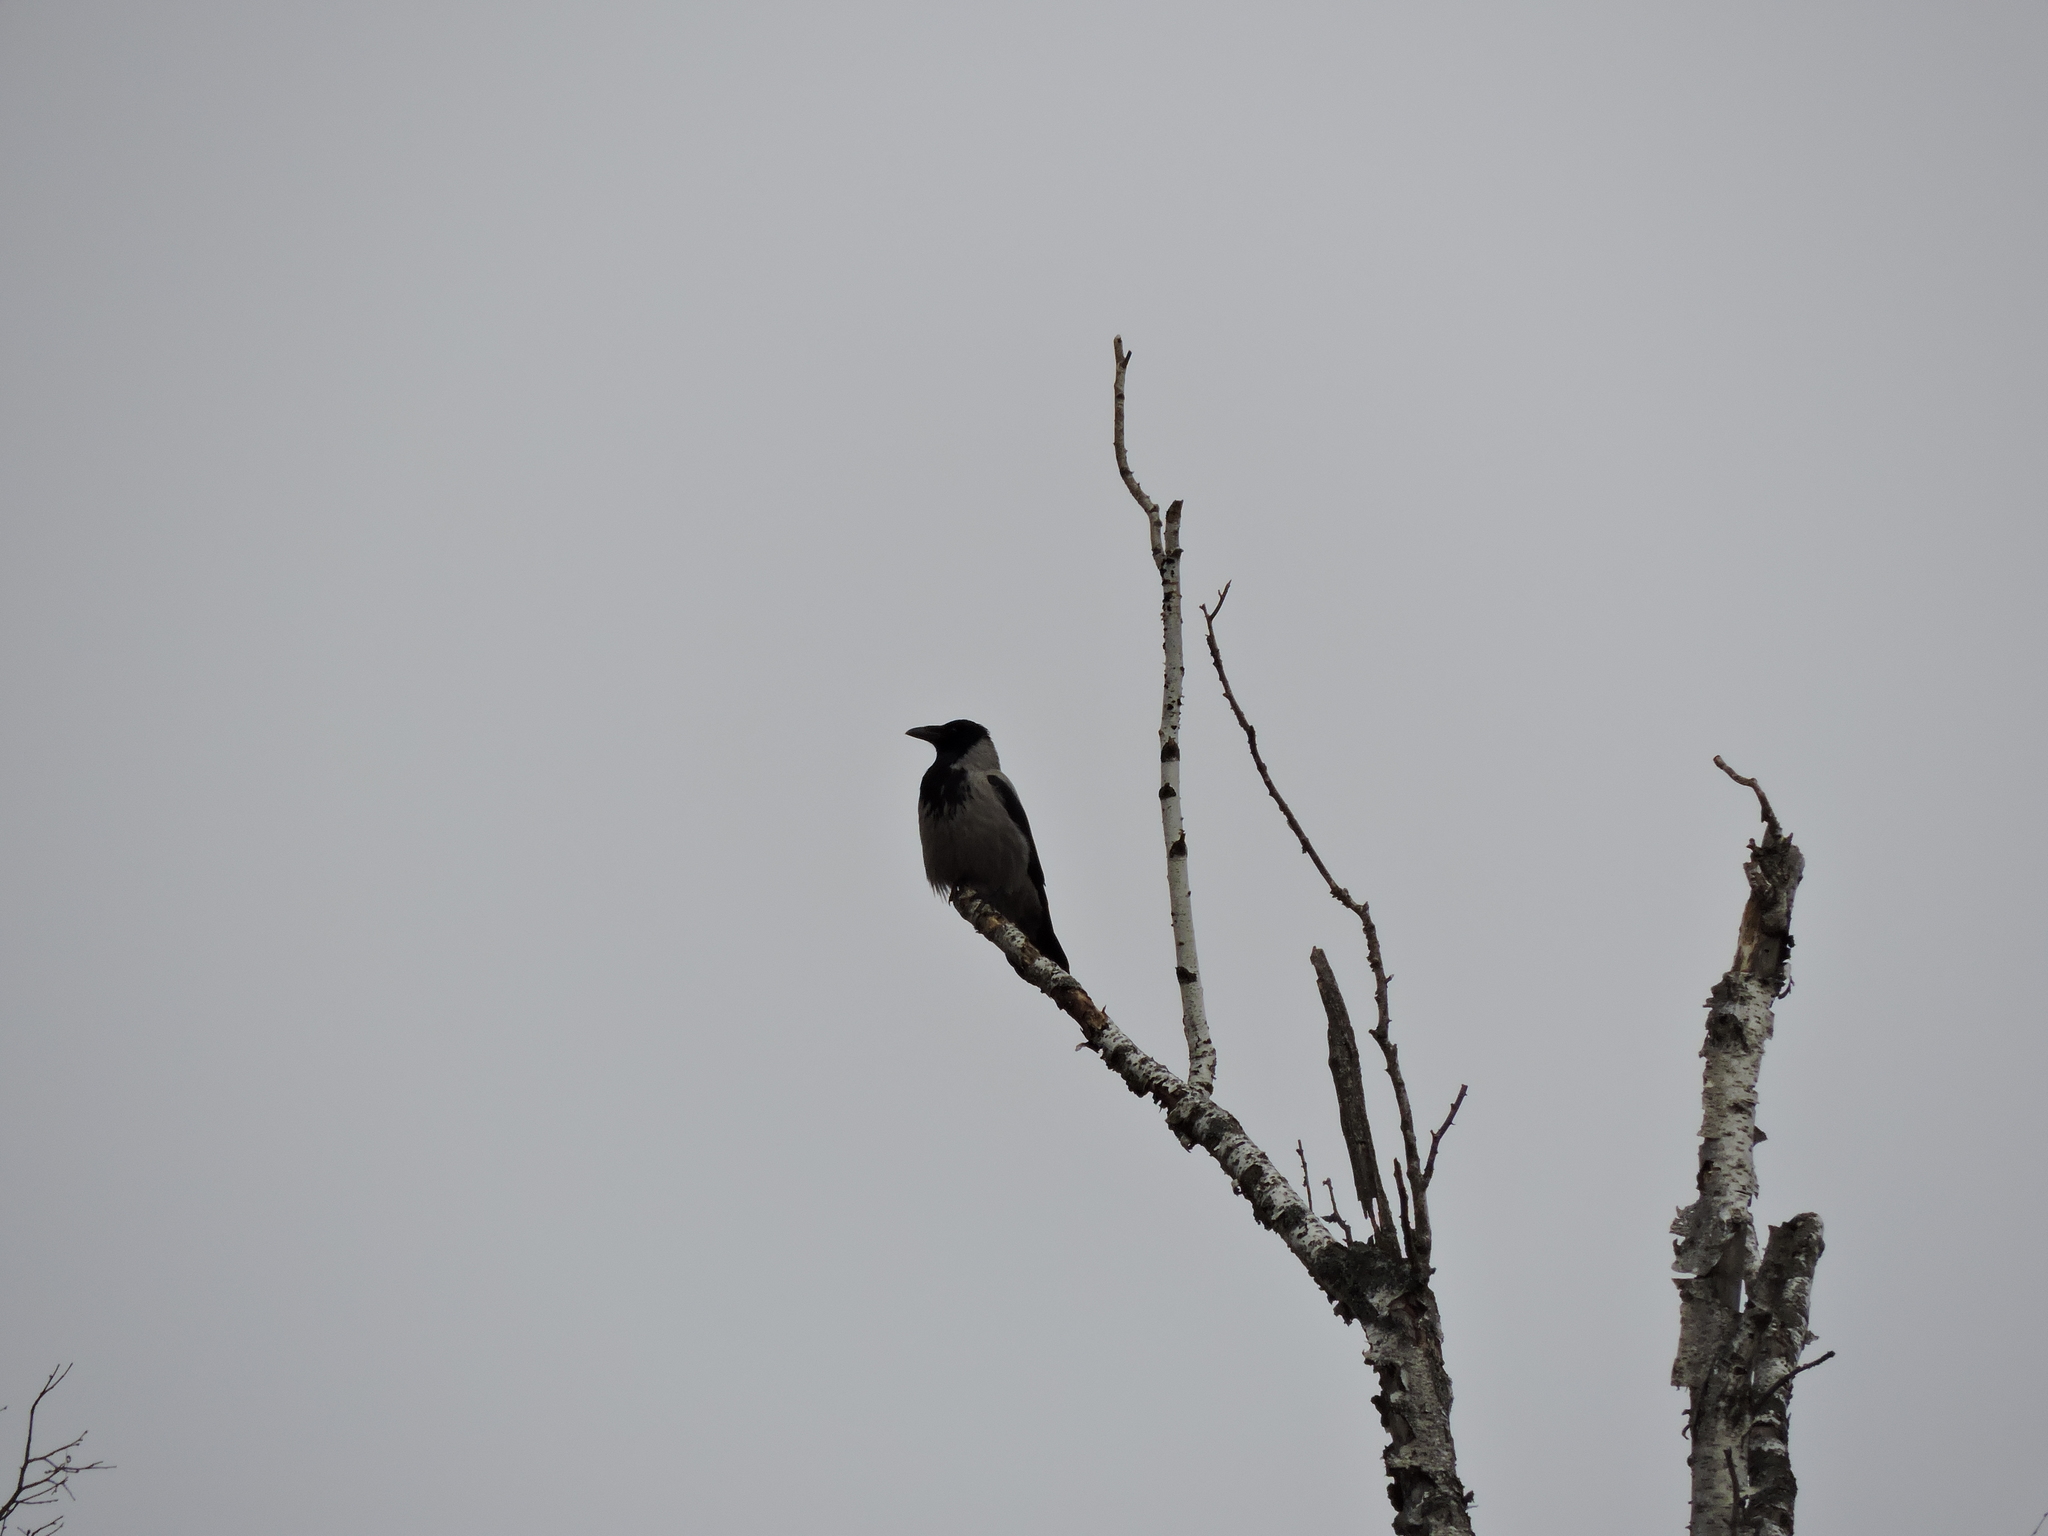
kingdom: Animalia
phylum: Chordata
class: Aves
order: Passeriformes
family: Corvidae
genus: Corvus
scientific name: Corvus cornix
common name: Hooded crow
